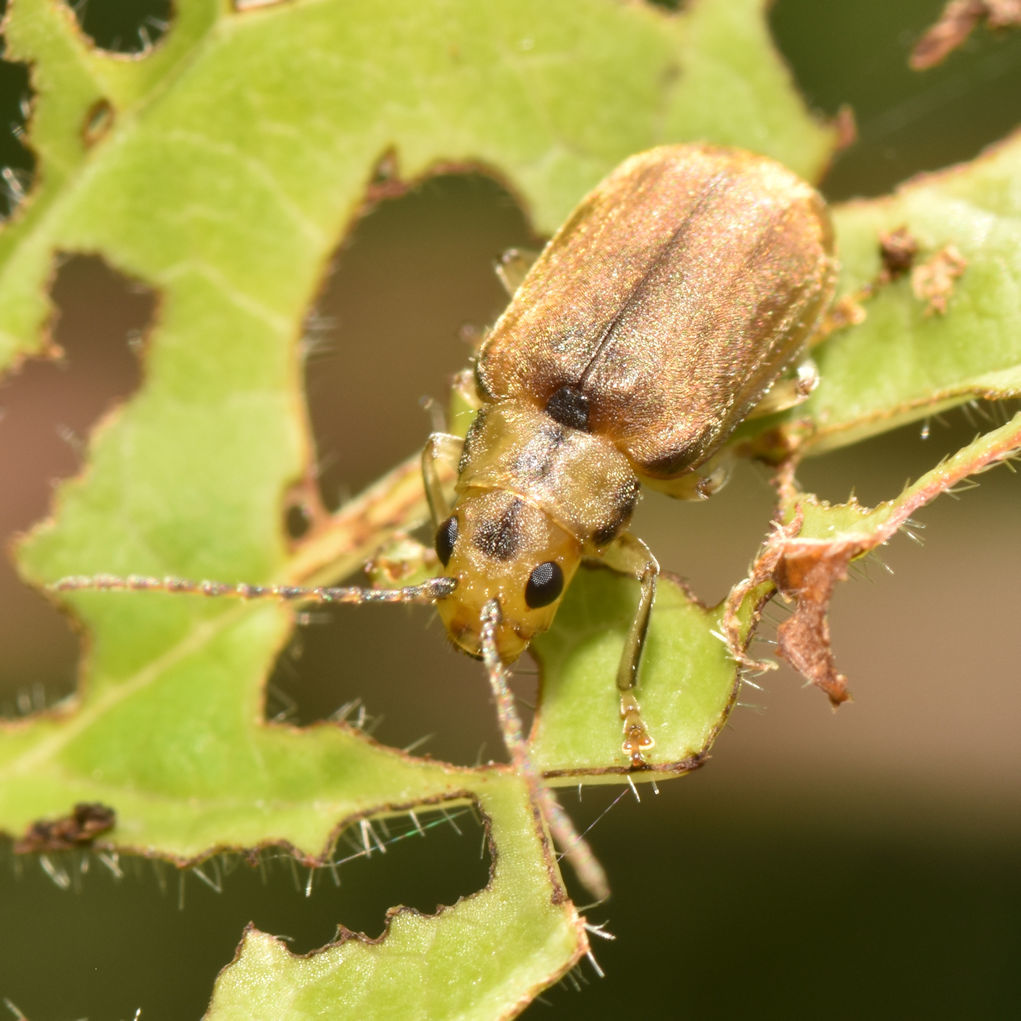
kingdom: Animalia
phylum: Arthropoda
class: Insecta
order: Coleoptera
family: Chrysomelidae
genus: Pyrrhalta
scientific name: Pyrrhalta viburni
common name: Guelder-rose leaf beetle
